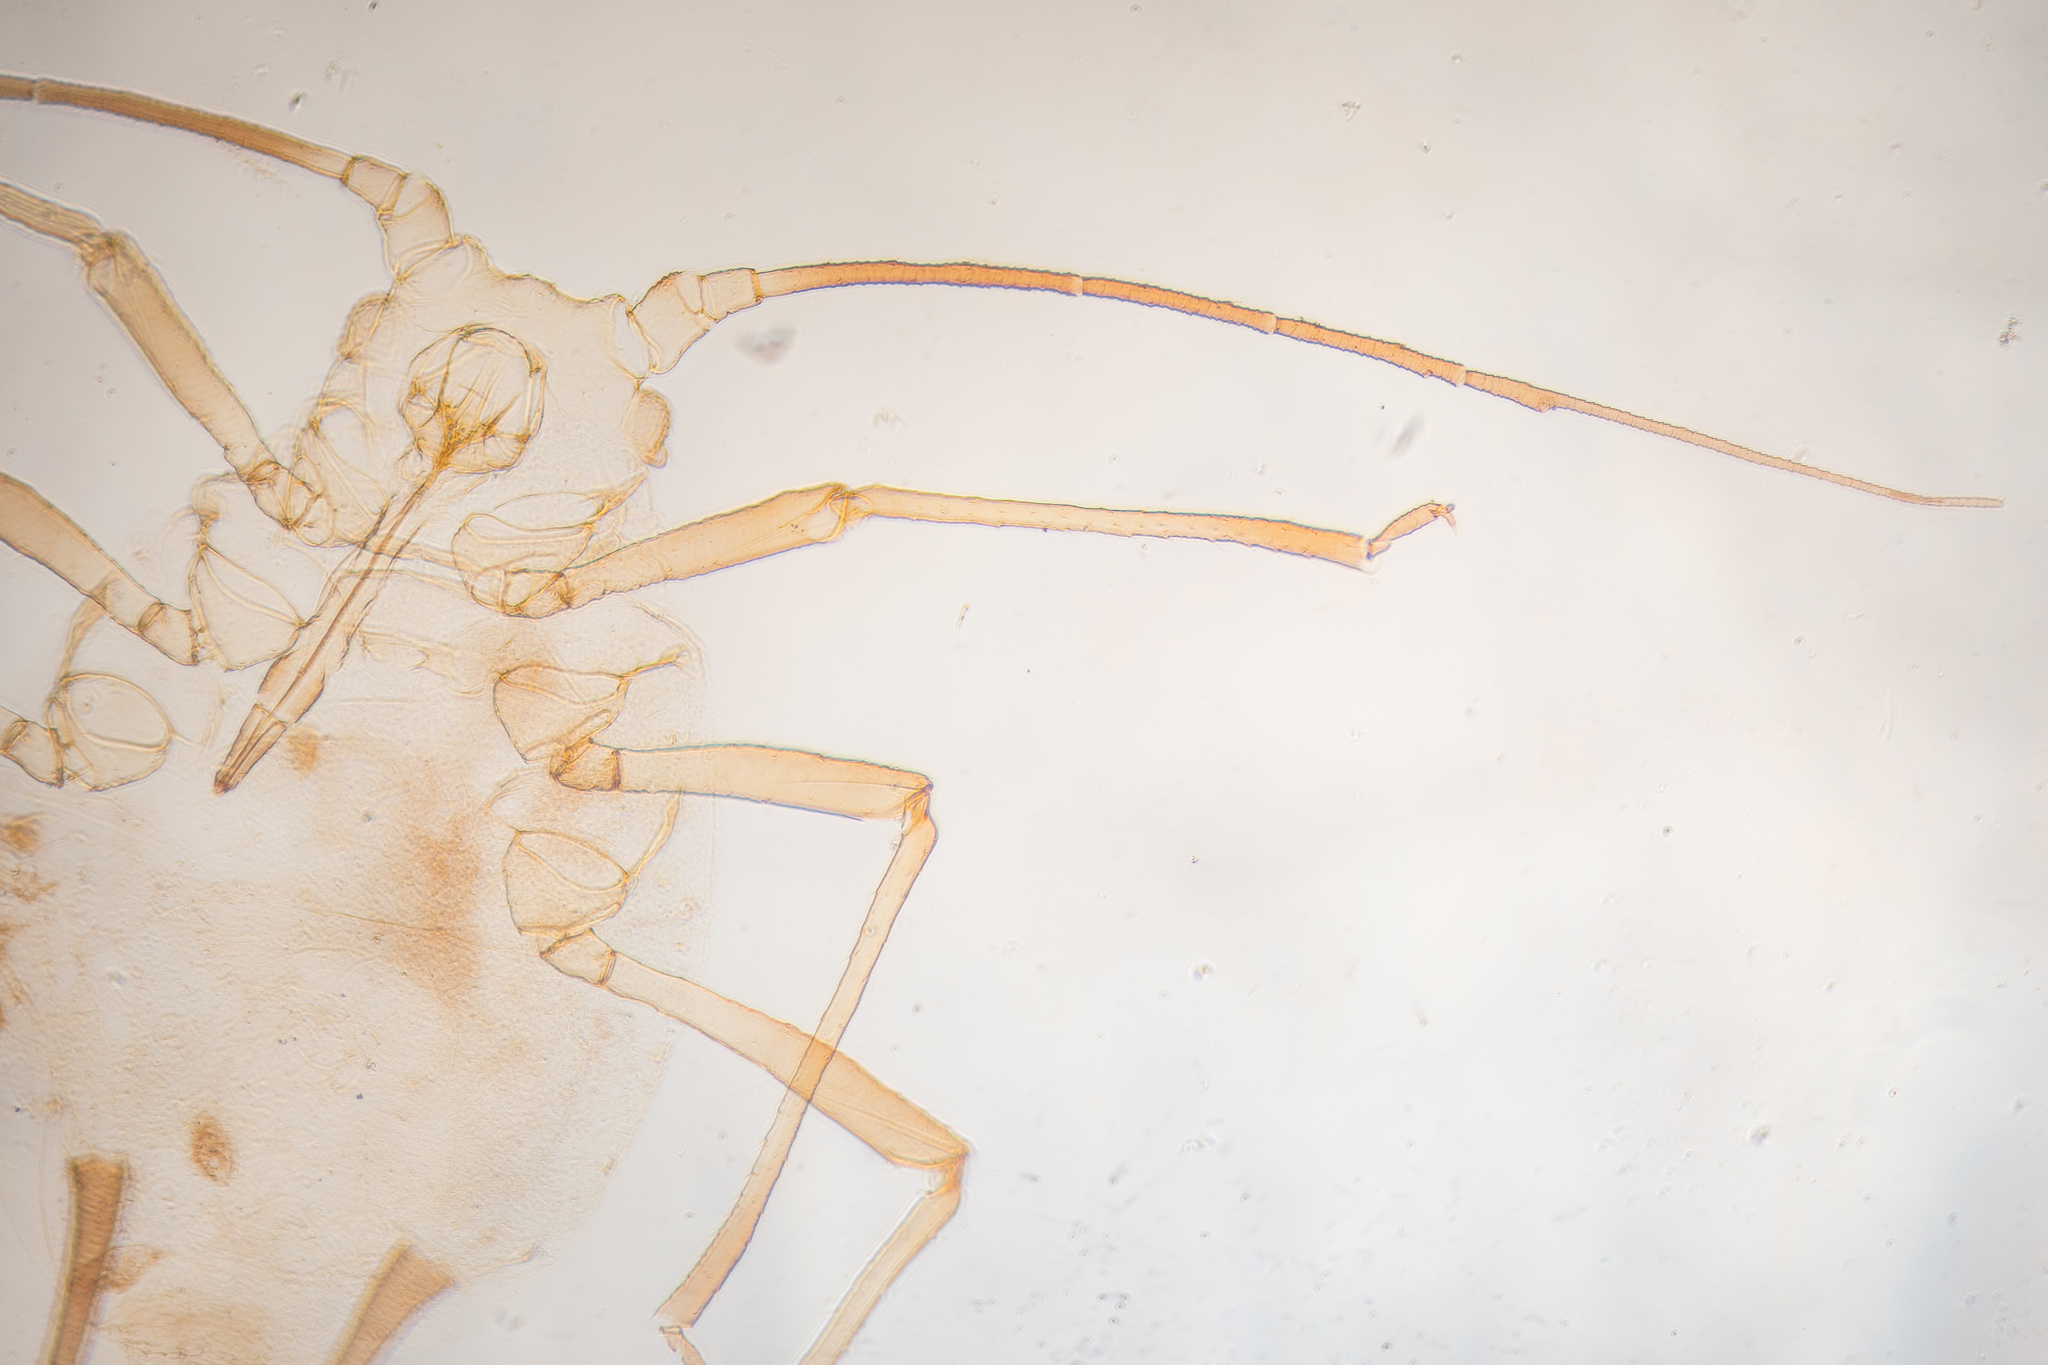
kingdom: Animalia
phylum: Arthropoda
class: Insecta
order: Hemiptera
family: Aphididae
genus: Aphis
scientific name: Aphis coreopsidis
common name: Aphid
